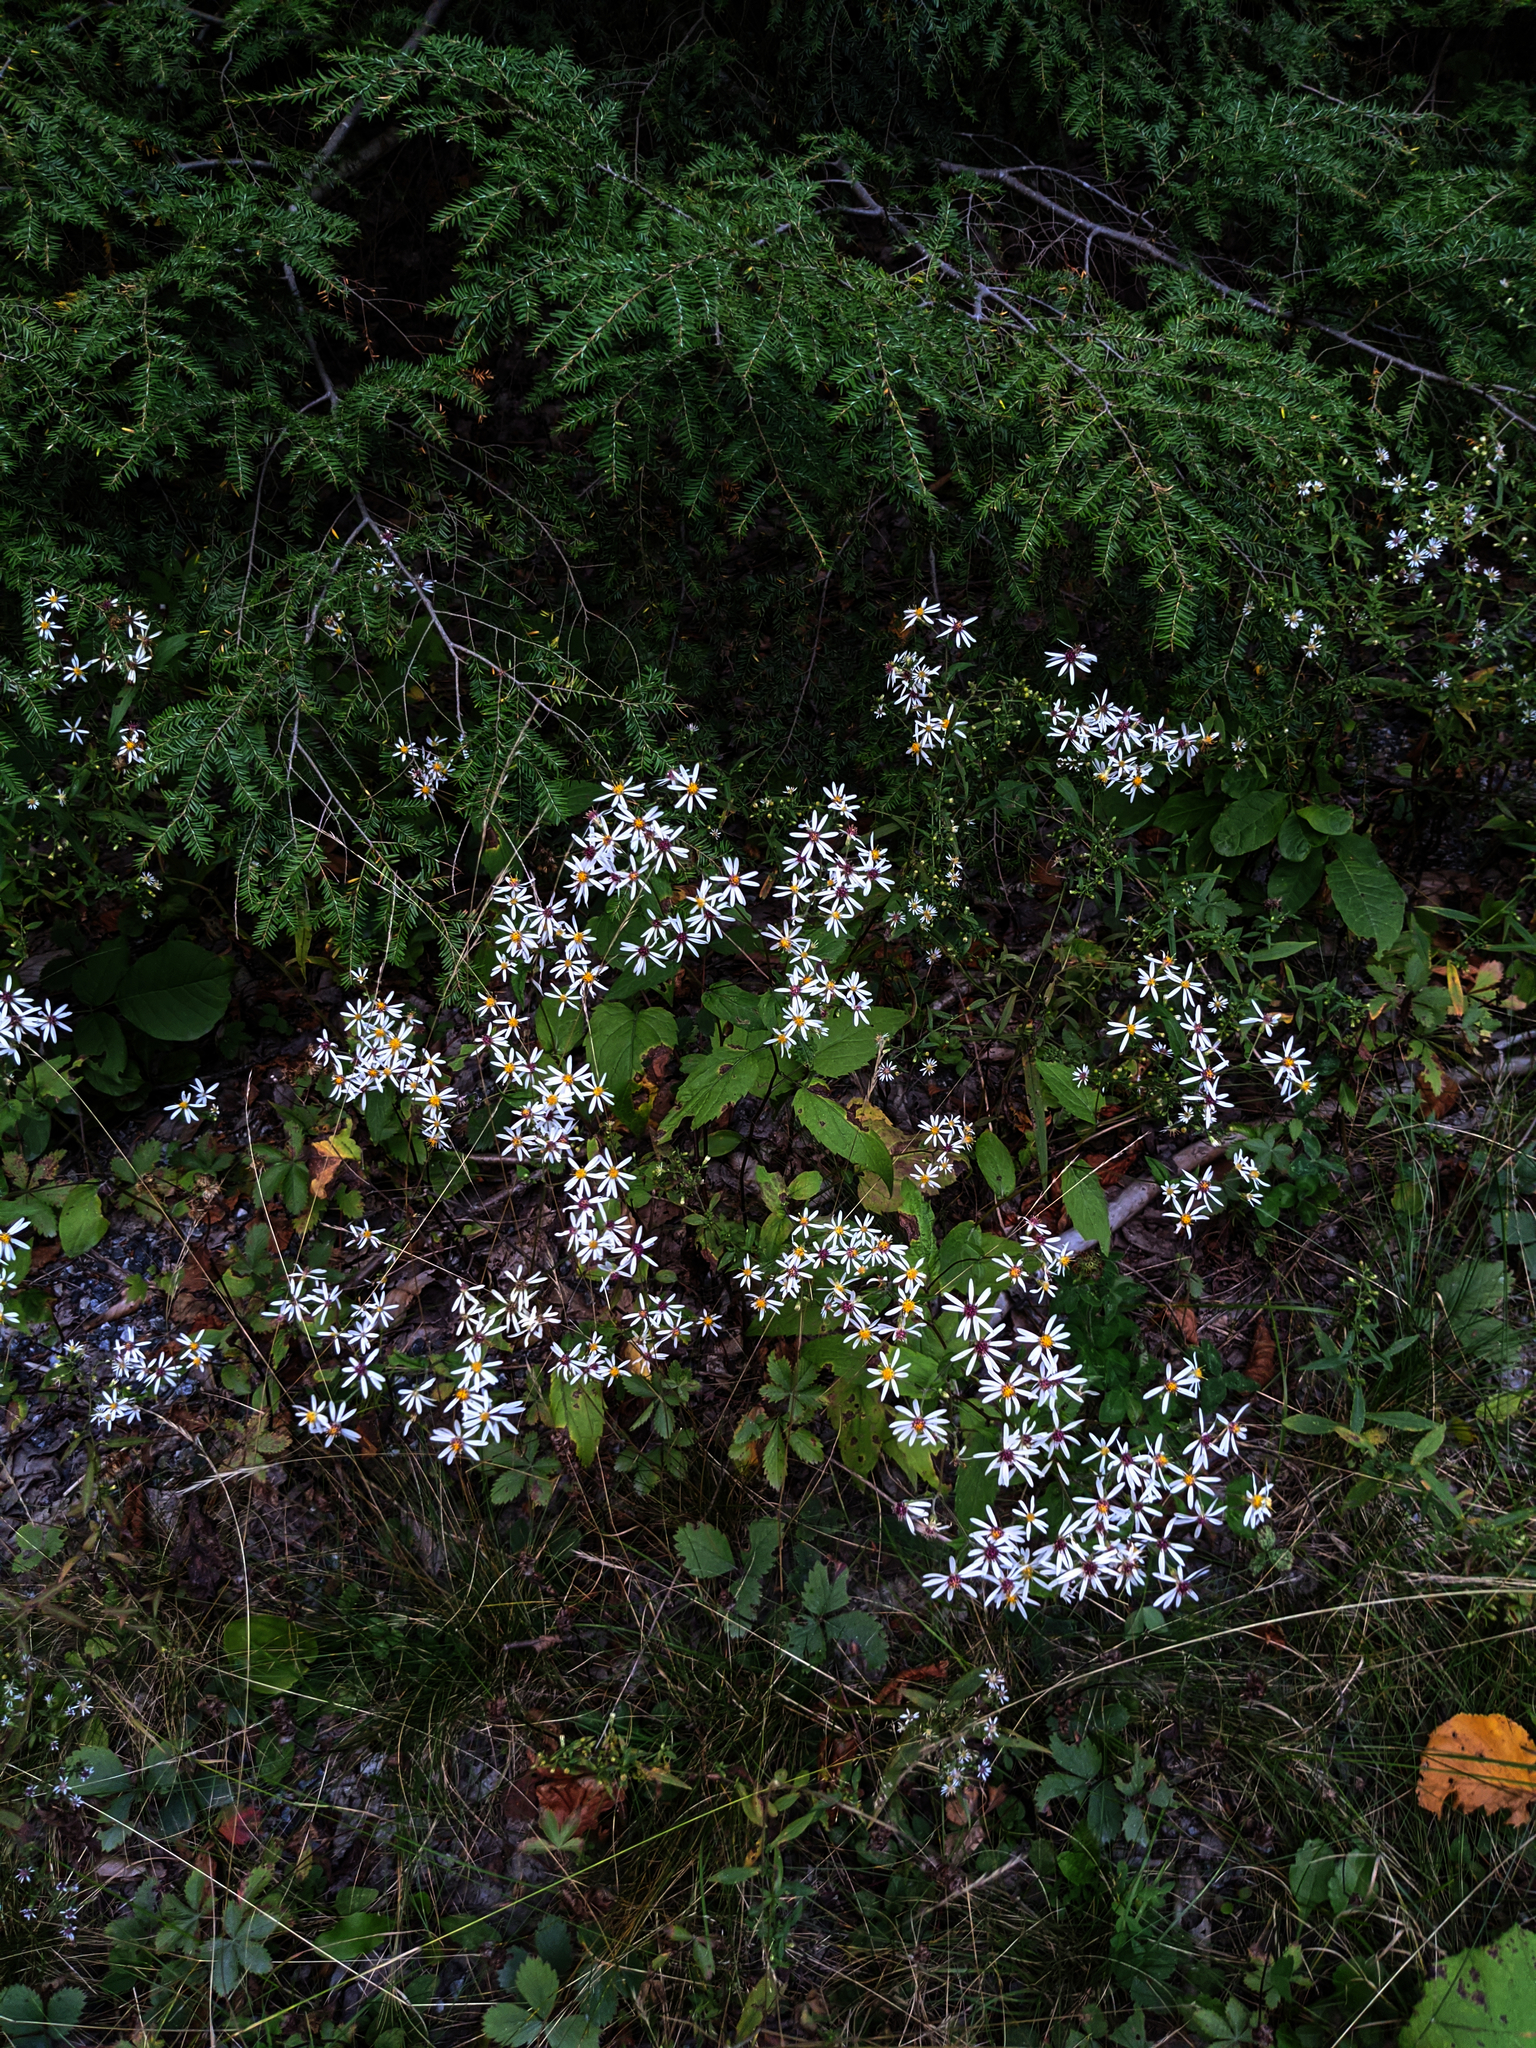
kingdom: Plantae
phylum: Tracheophyta
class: Pinopsida
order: Pinales
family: Pinaceae
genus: Tsuga
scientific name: Tsuga canadensis
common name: Eastern hemlock
